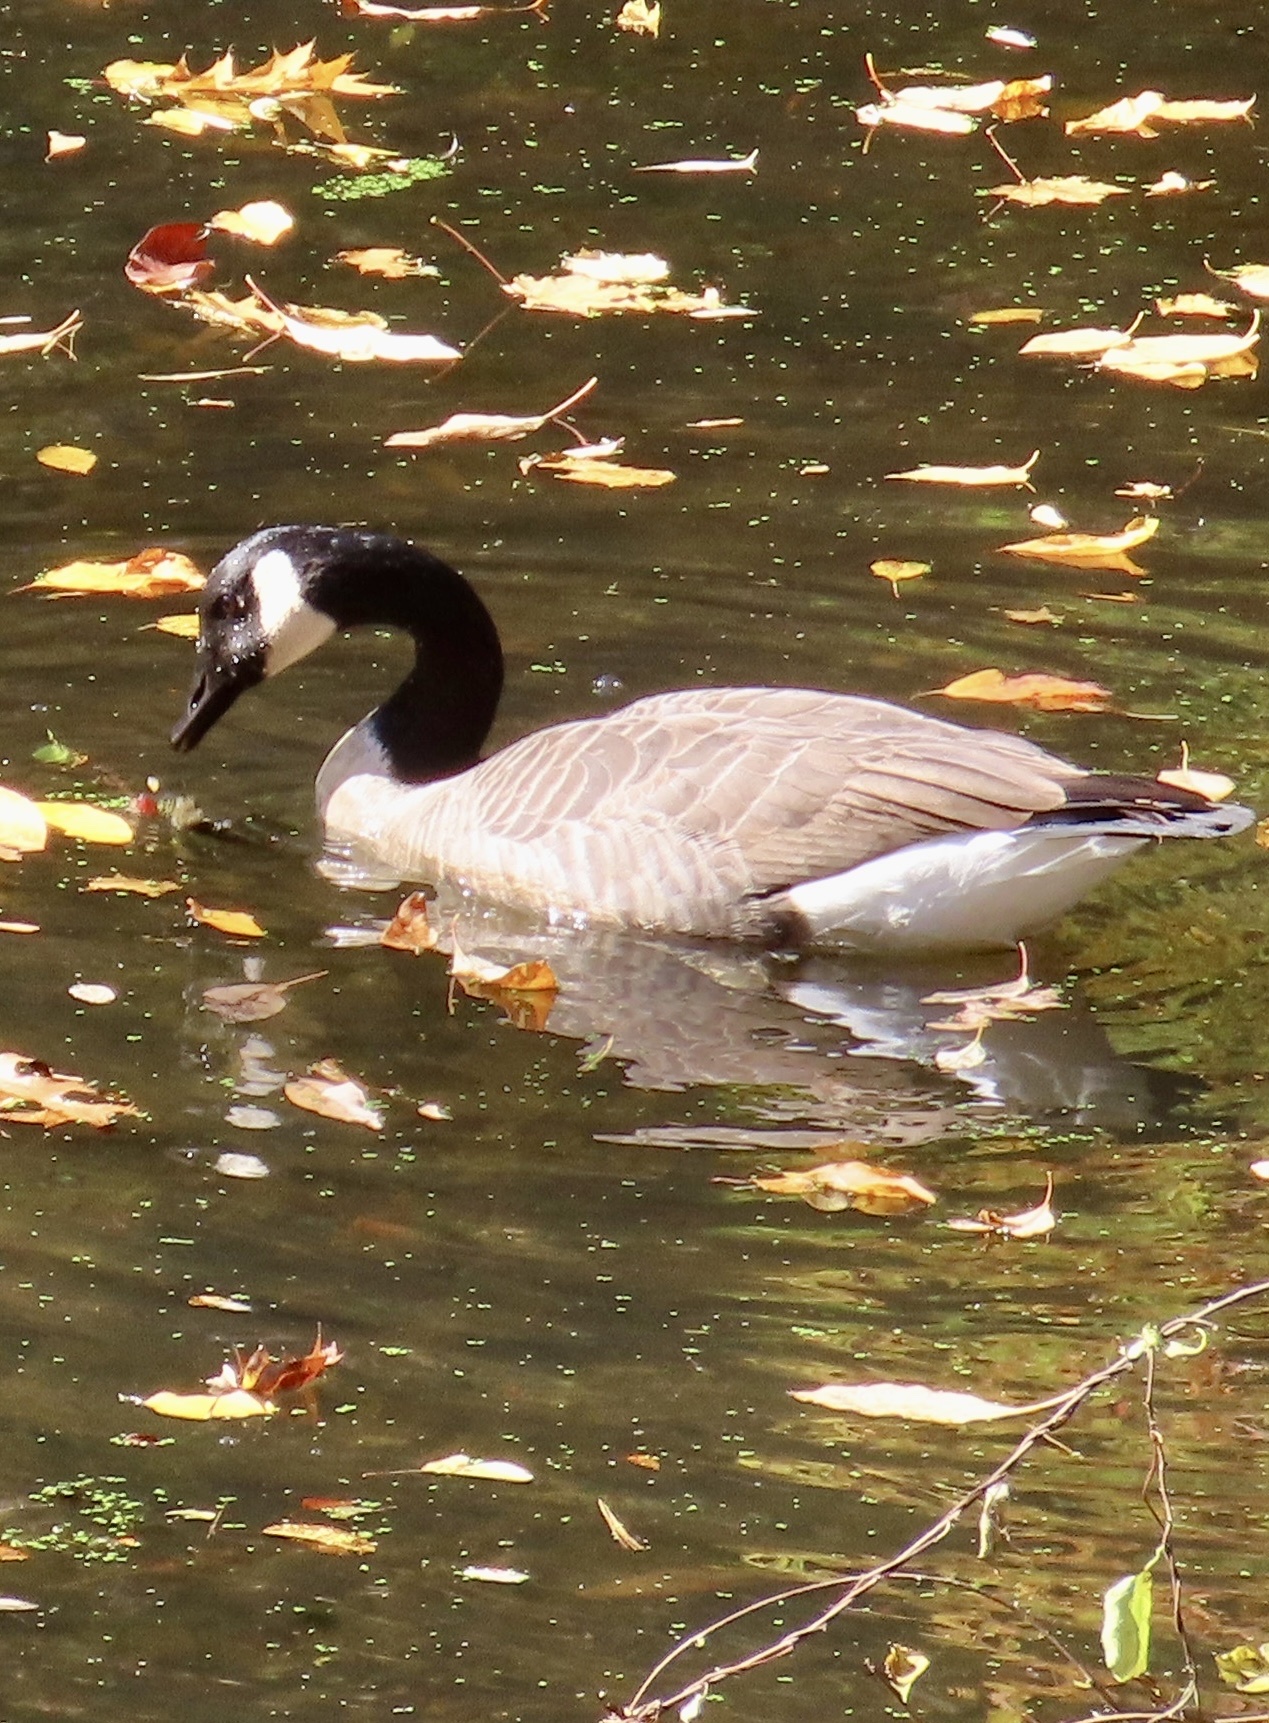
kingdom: Animalia
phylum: Chordata
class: Aves
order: Anseriformes
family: Anatidae
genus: Branta
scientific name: Branta canadensis
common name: Canada goose
